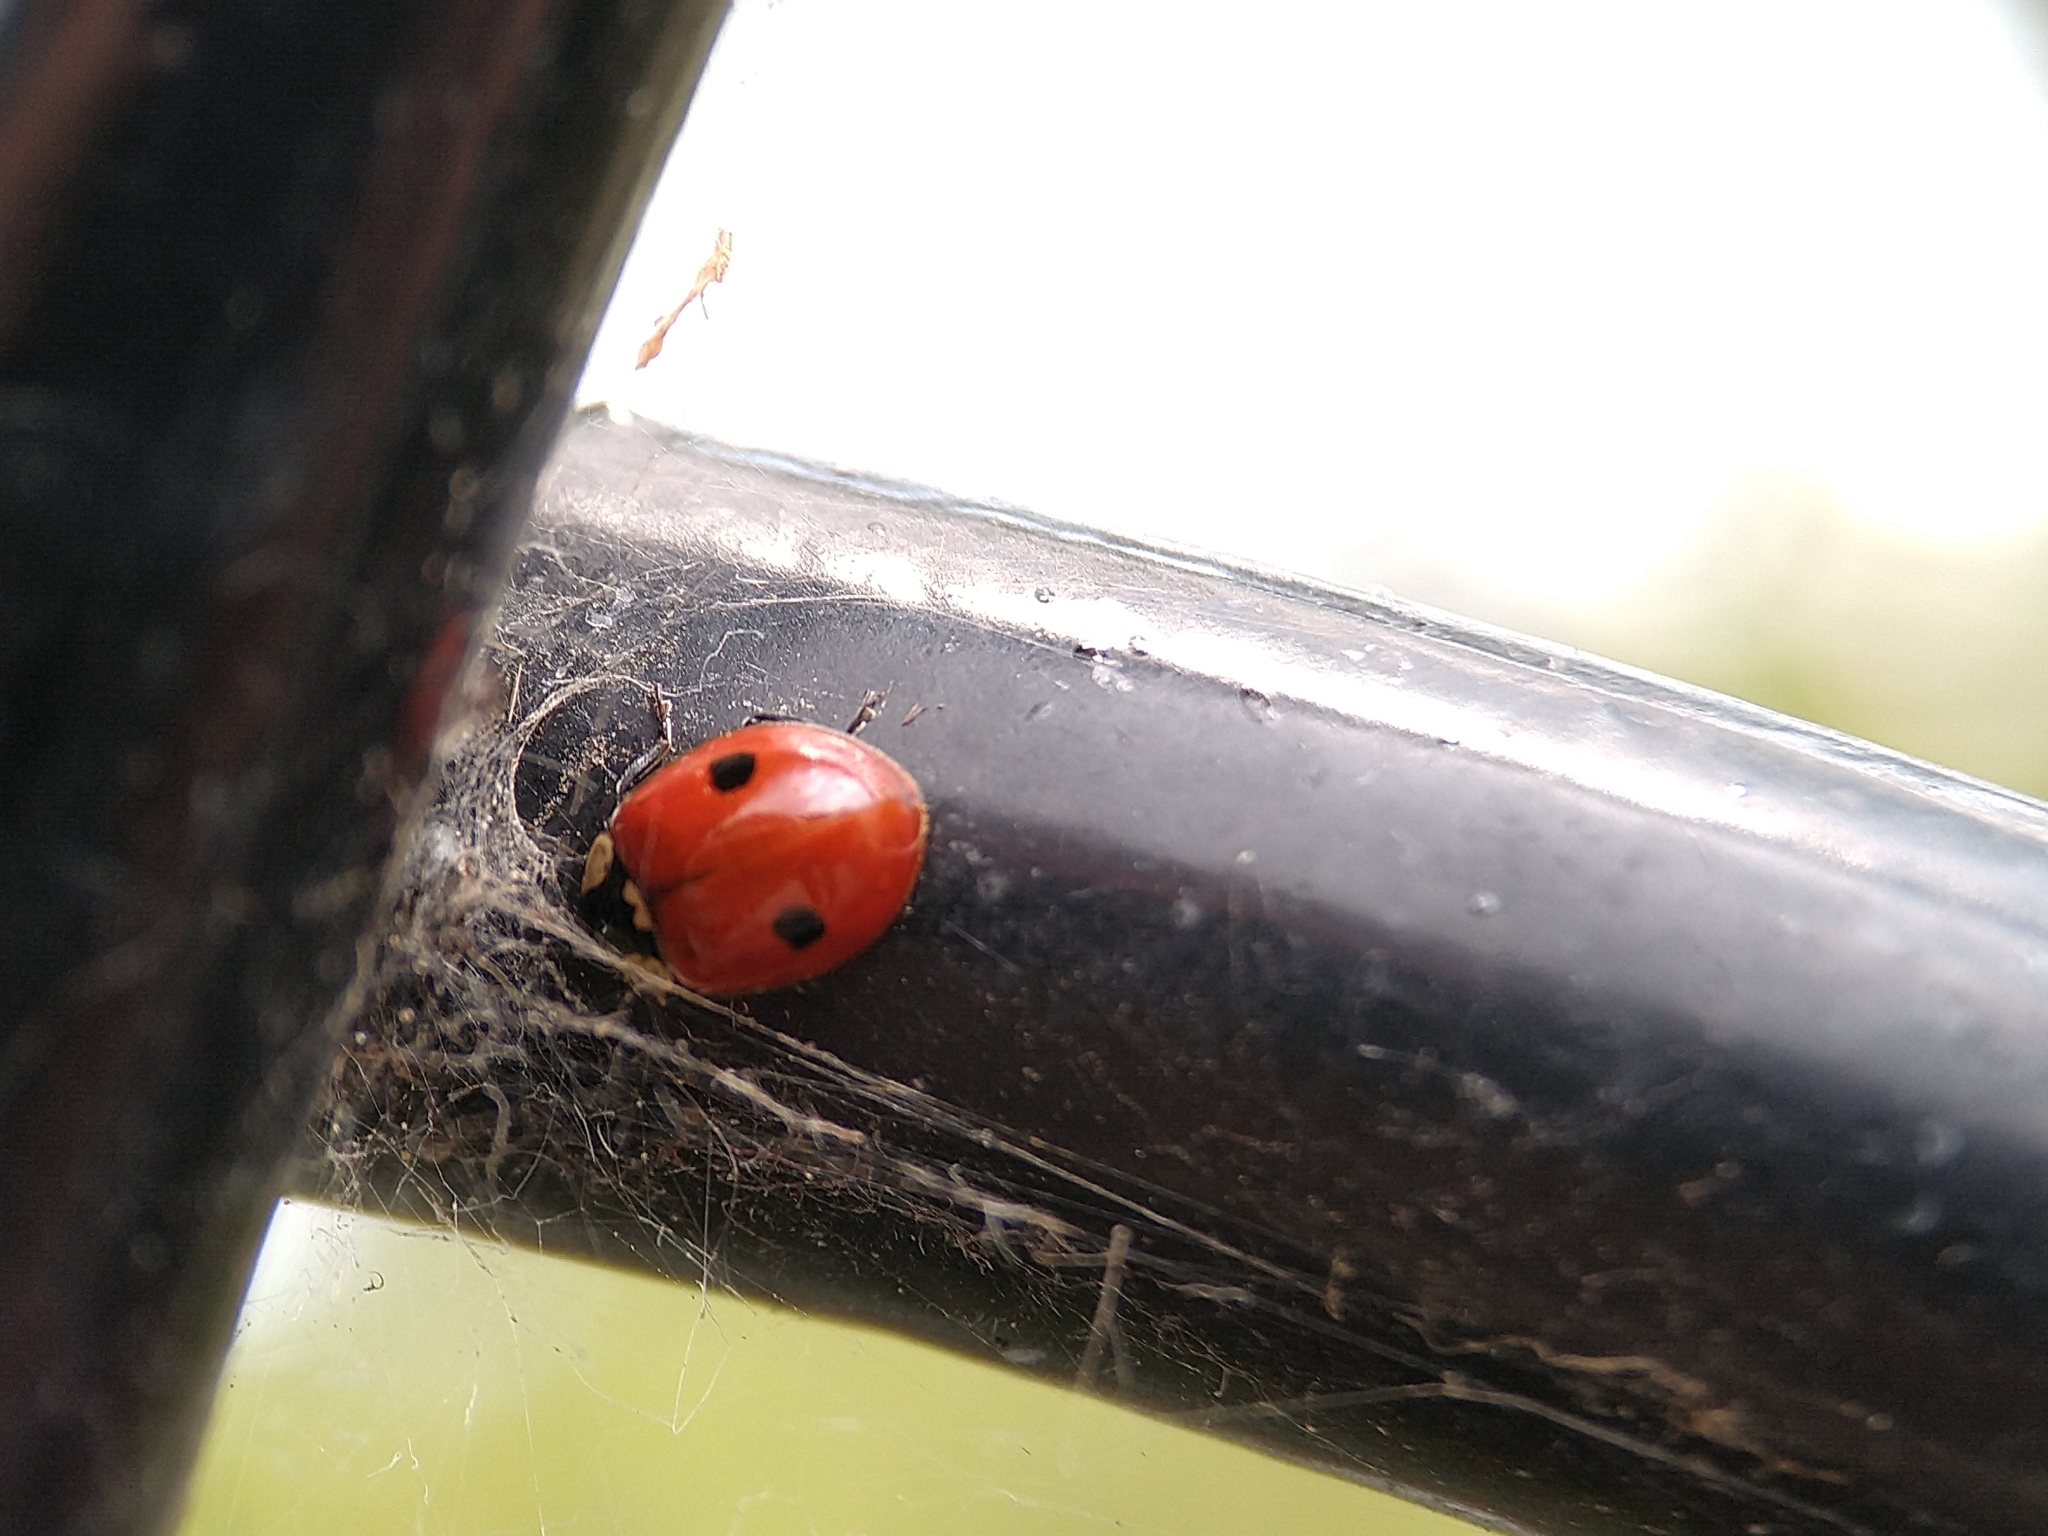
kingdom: Animalia
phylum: Arthropoda
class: Insecta
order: Coleoptera
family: Coccinellidae
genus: Adalia
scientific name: Adalia bipunctata
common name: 2-spot ladybird
